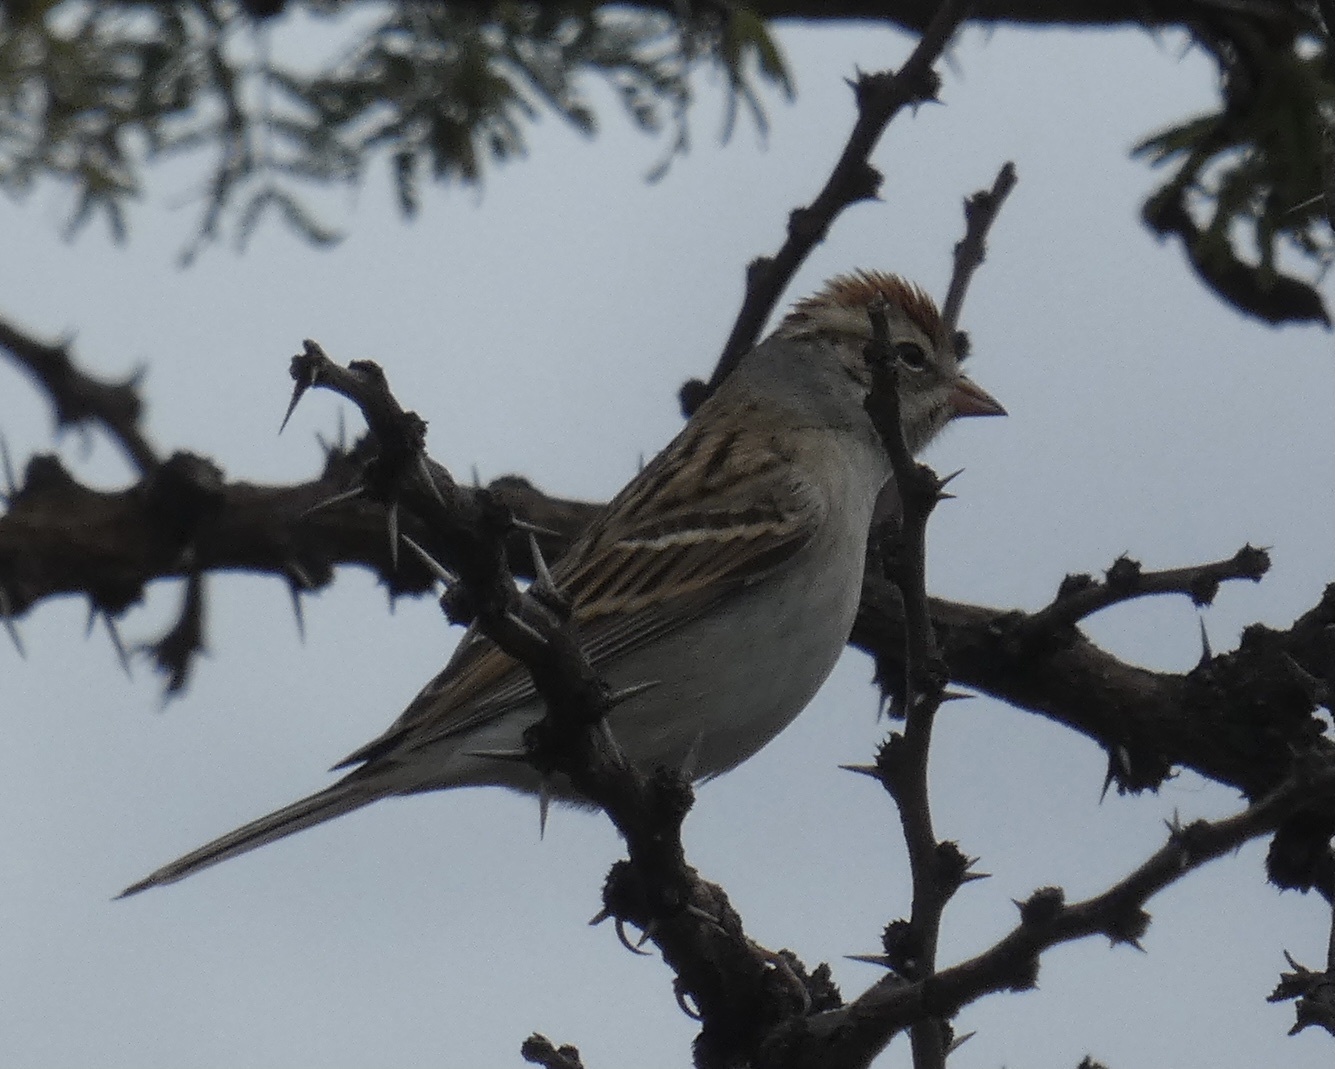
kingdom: Animalia
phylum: Chordata
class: Aves
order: Passeriformes
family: Passerellidae
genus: Spizella
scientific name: Spizella passerina
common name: Chipping sparrow
